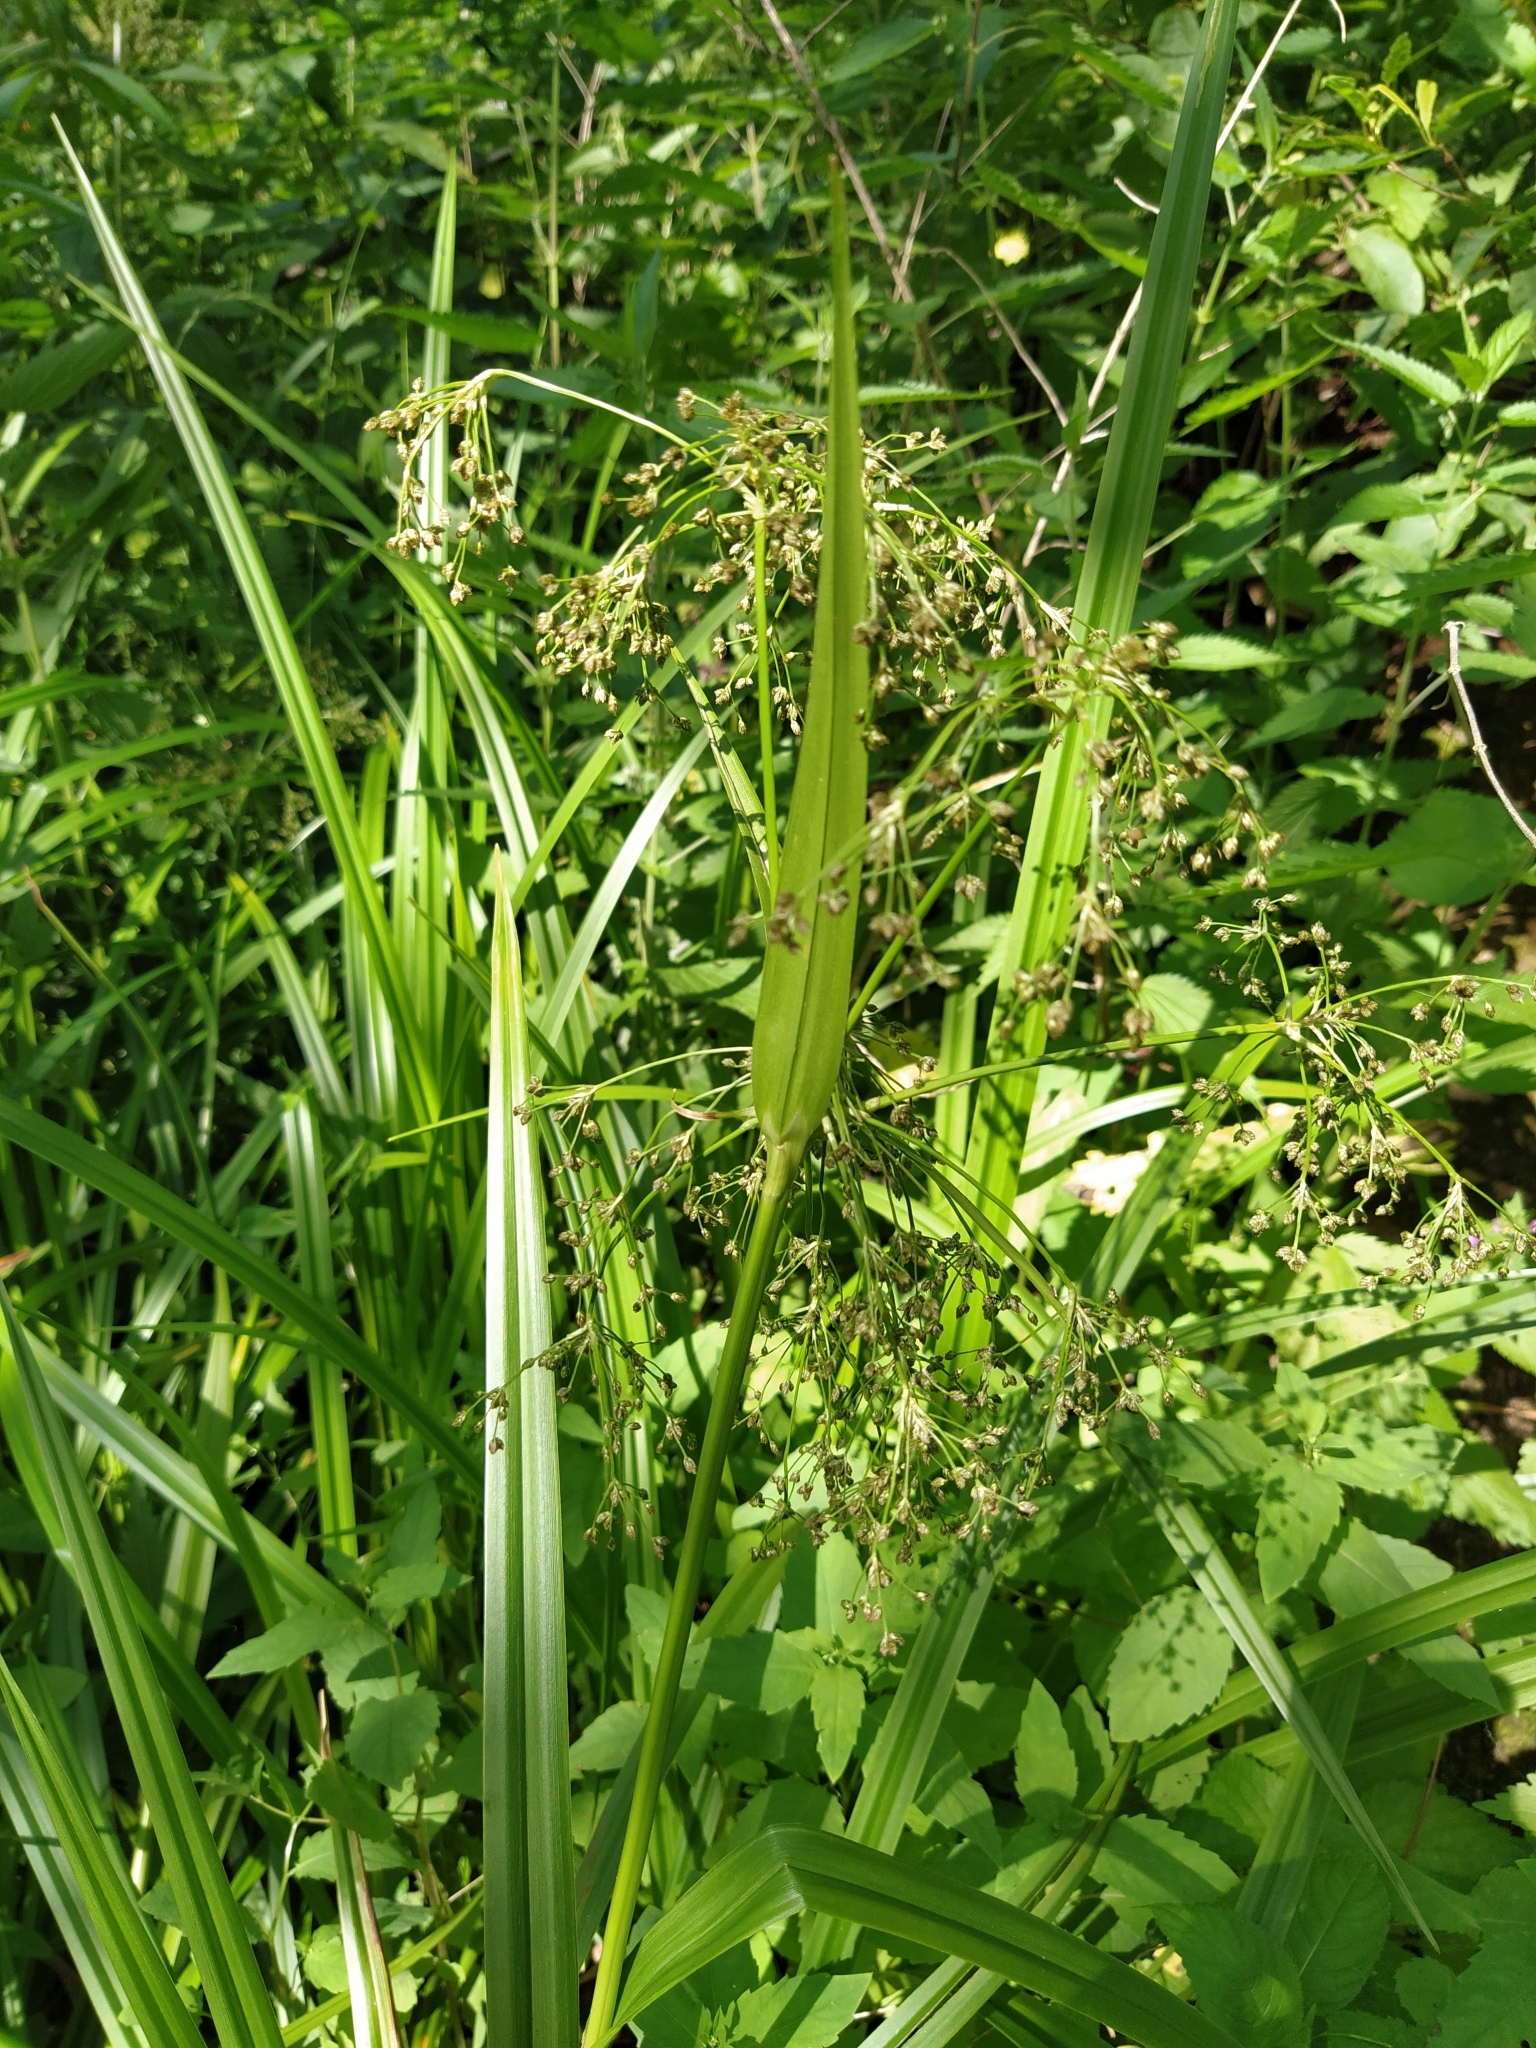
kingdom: Plantae
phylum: Tracheophyta
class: Liliopsida
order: Poales
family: Cyperaceae
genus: Scirpus
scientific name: Scirpus sylvaticus
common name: Wood club-rush
